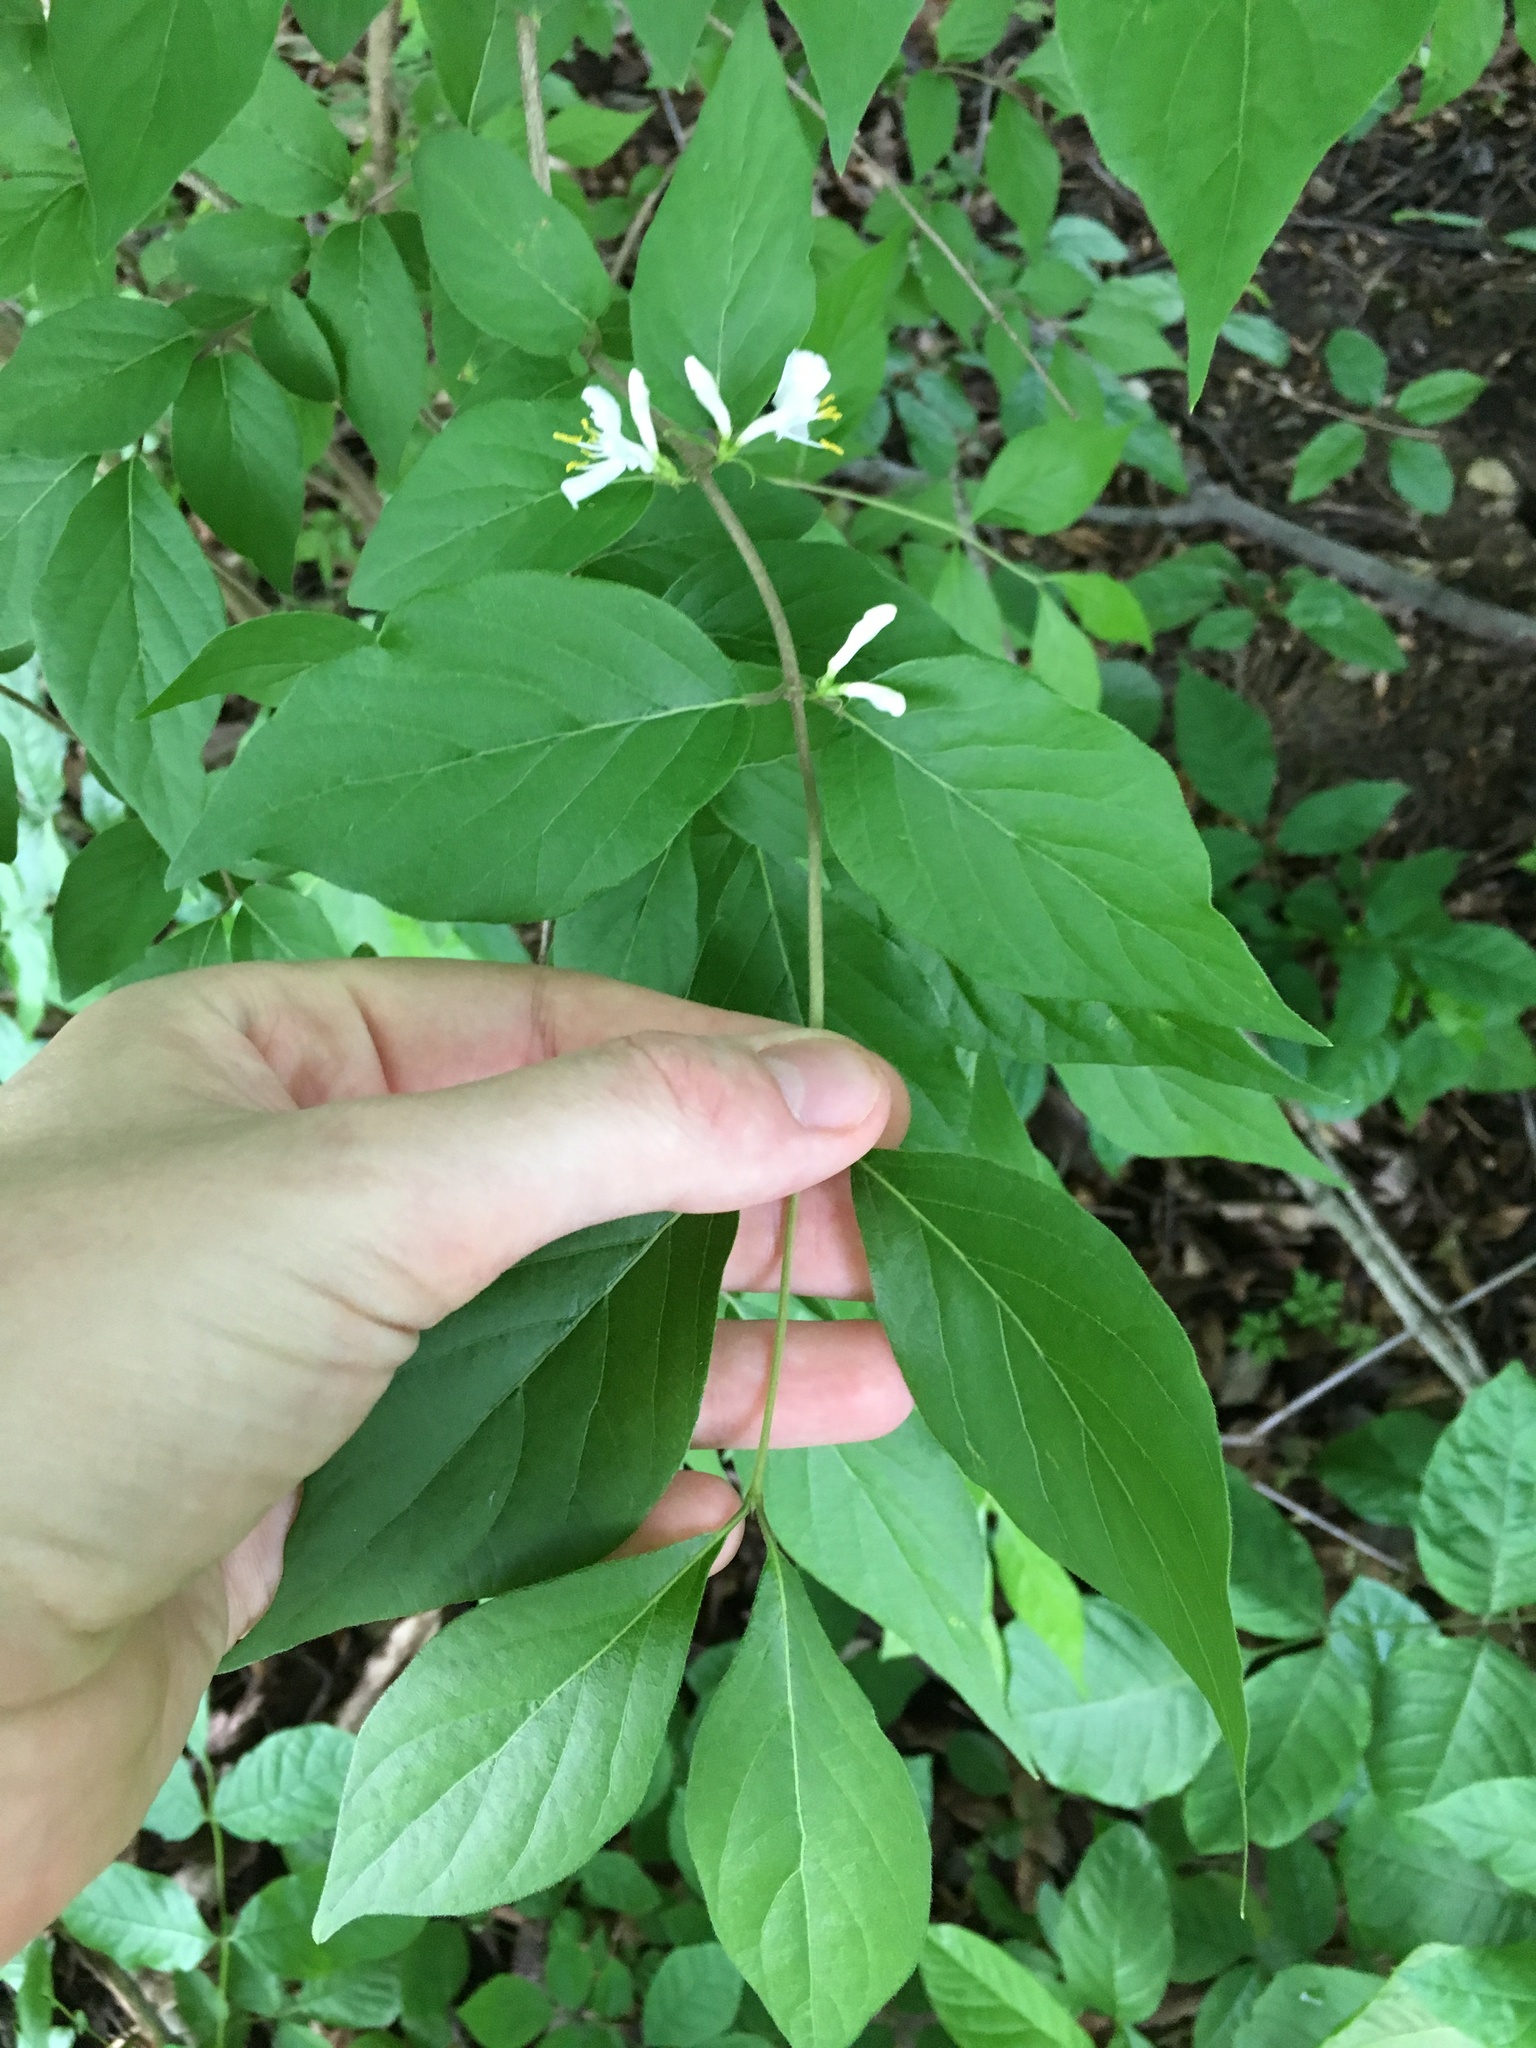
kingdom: Plantae
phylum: Tracheophyta
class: Magnoliopsida
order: Dipsacales
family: Caprifoliaceae
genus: Lonicera
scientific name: Lonicera maackii
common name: Amur honeysuckle
